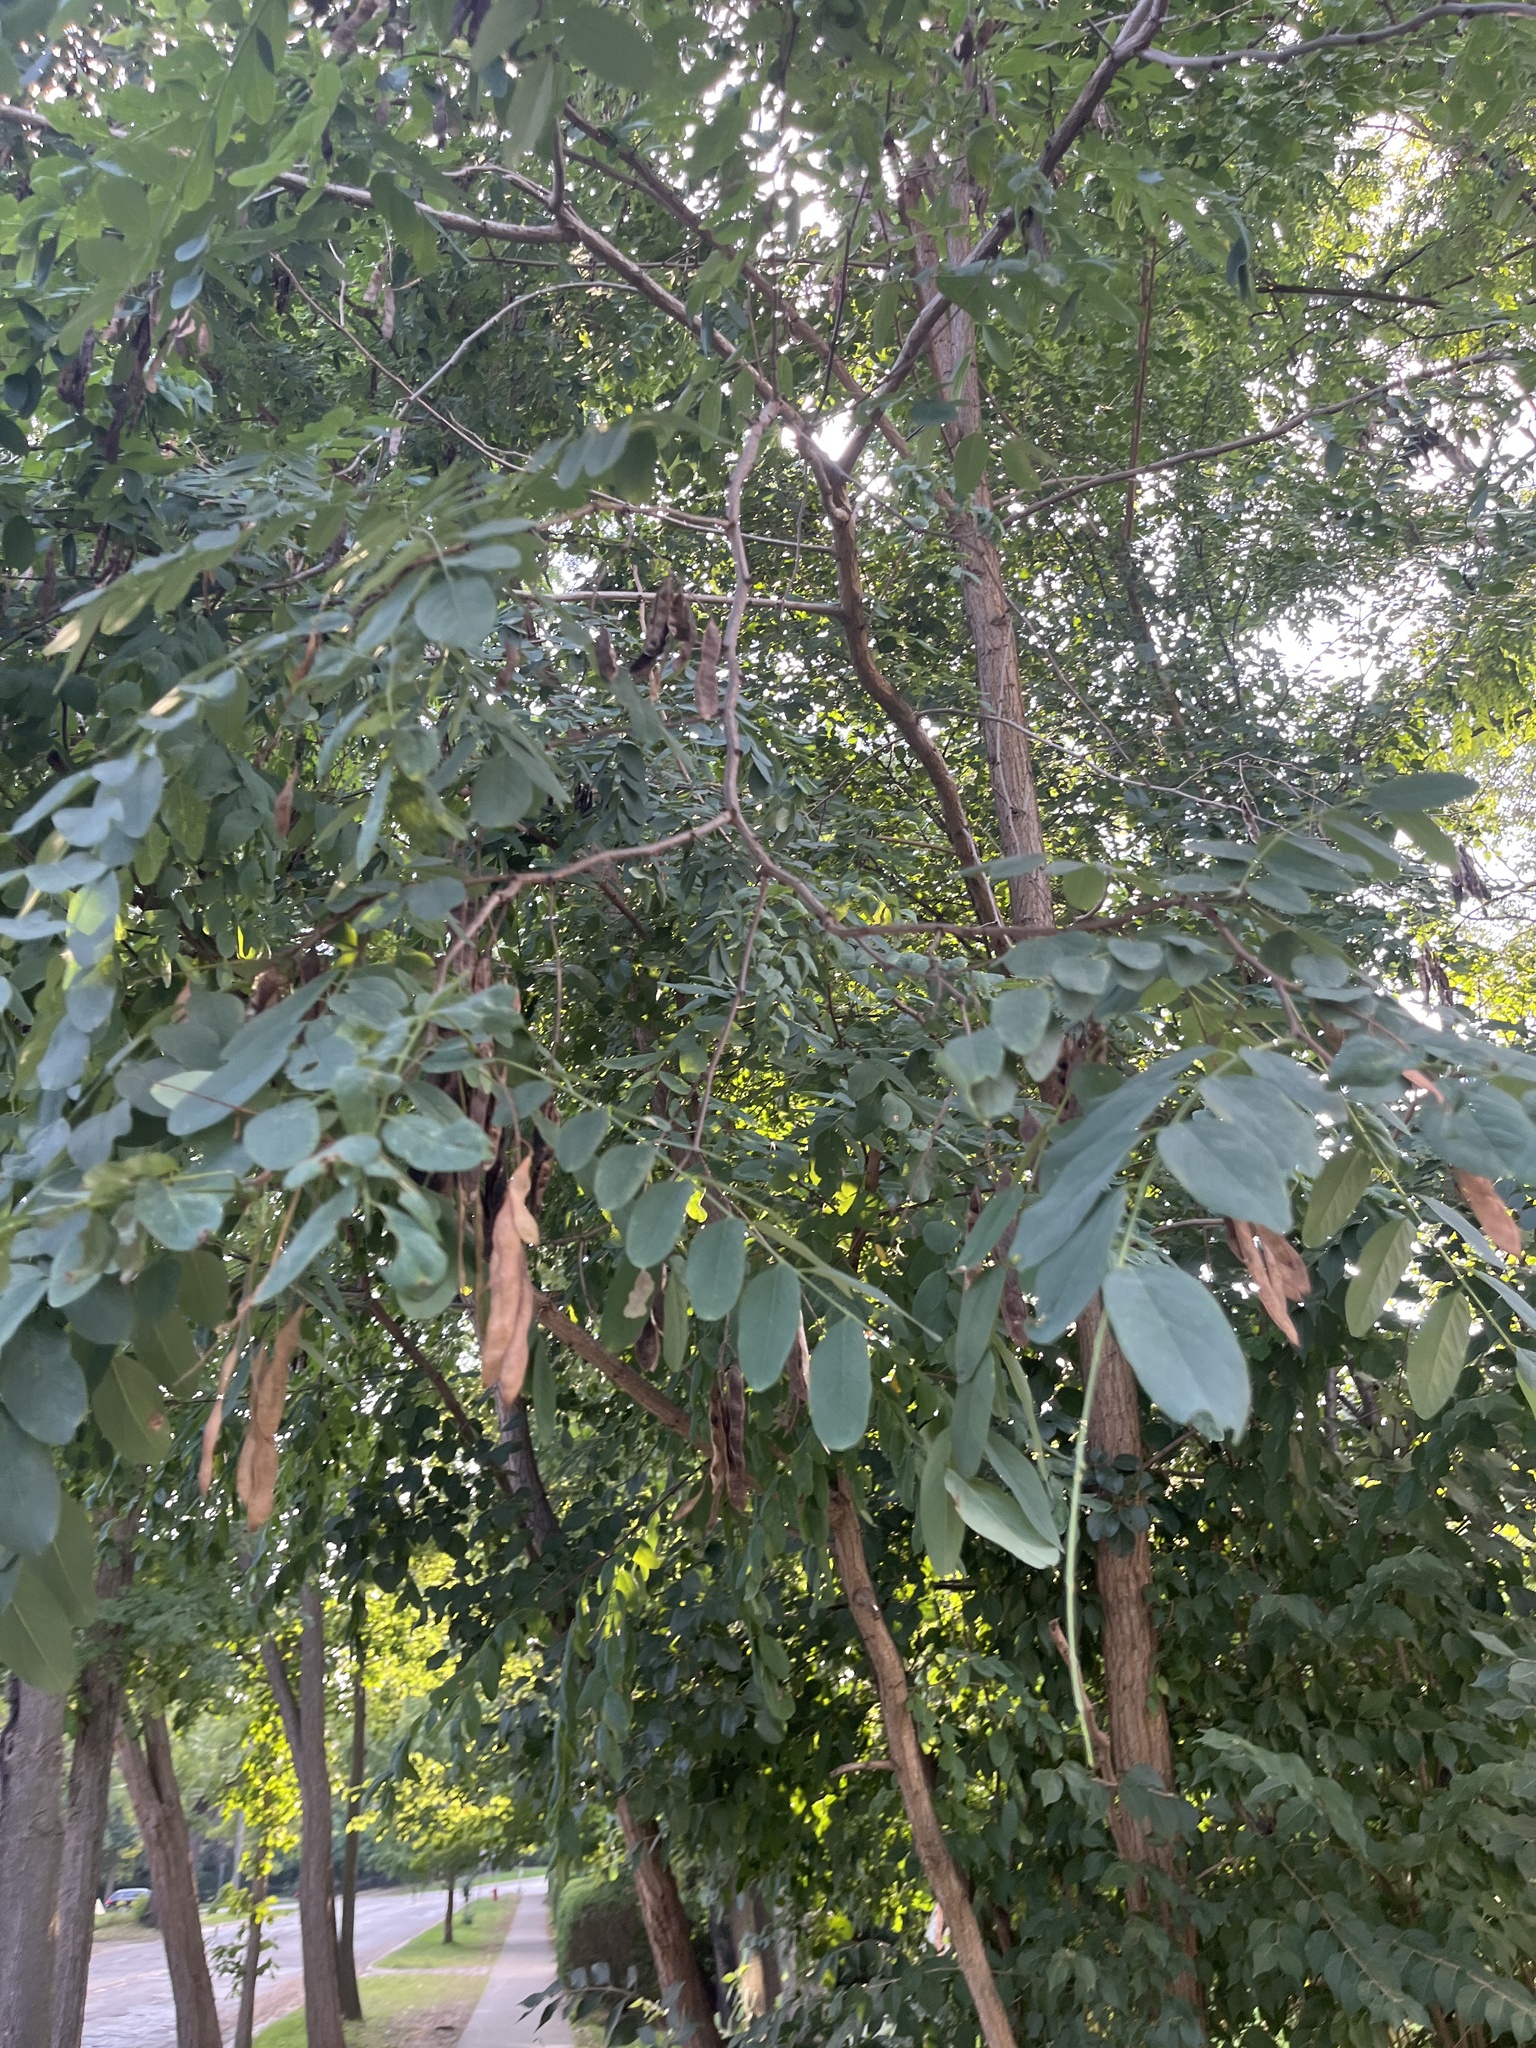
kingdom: Plantae
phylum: Tracheophyta
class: Magnoliopsida
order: Fabales
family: Fabaceae
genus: Robinia
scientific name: Robinia pseudoacacia
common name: Black locust
